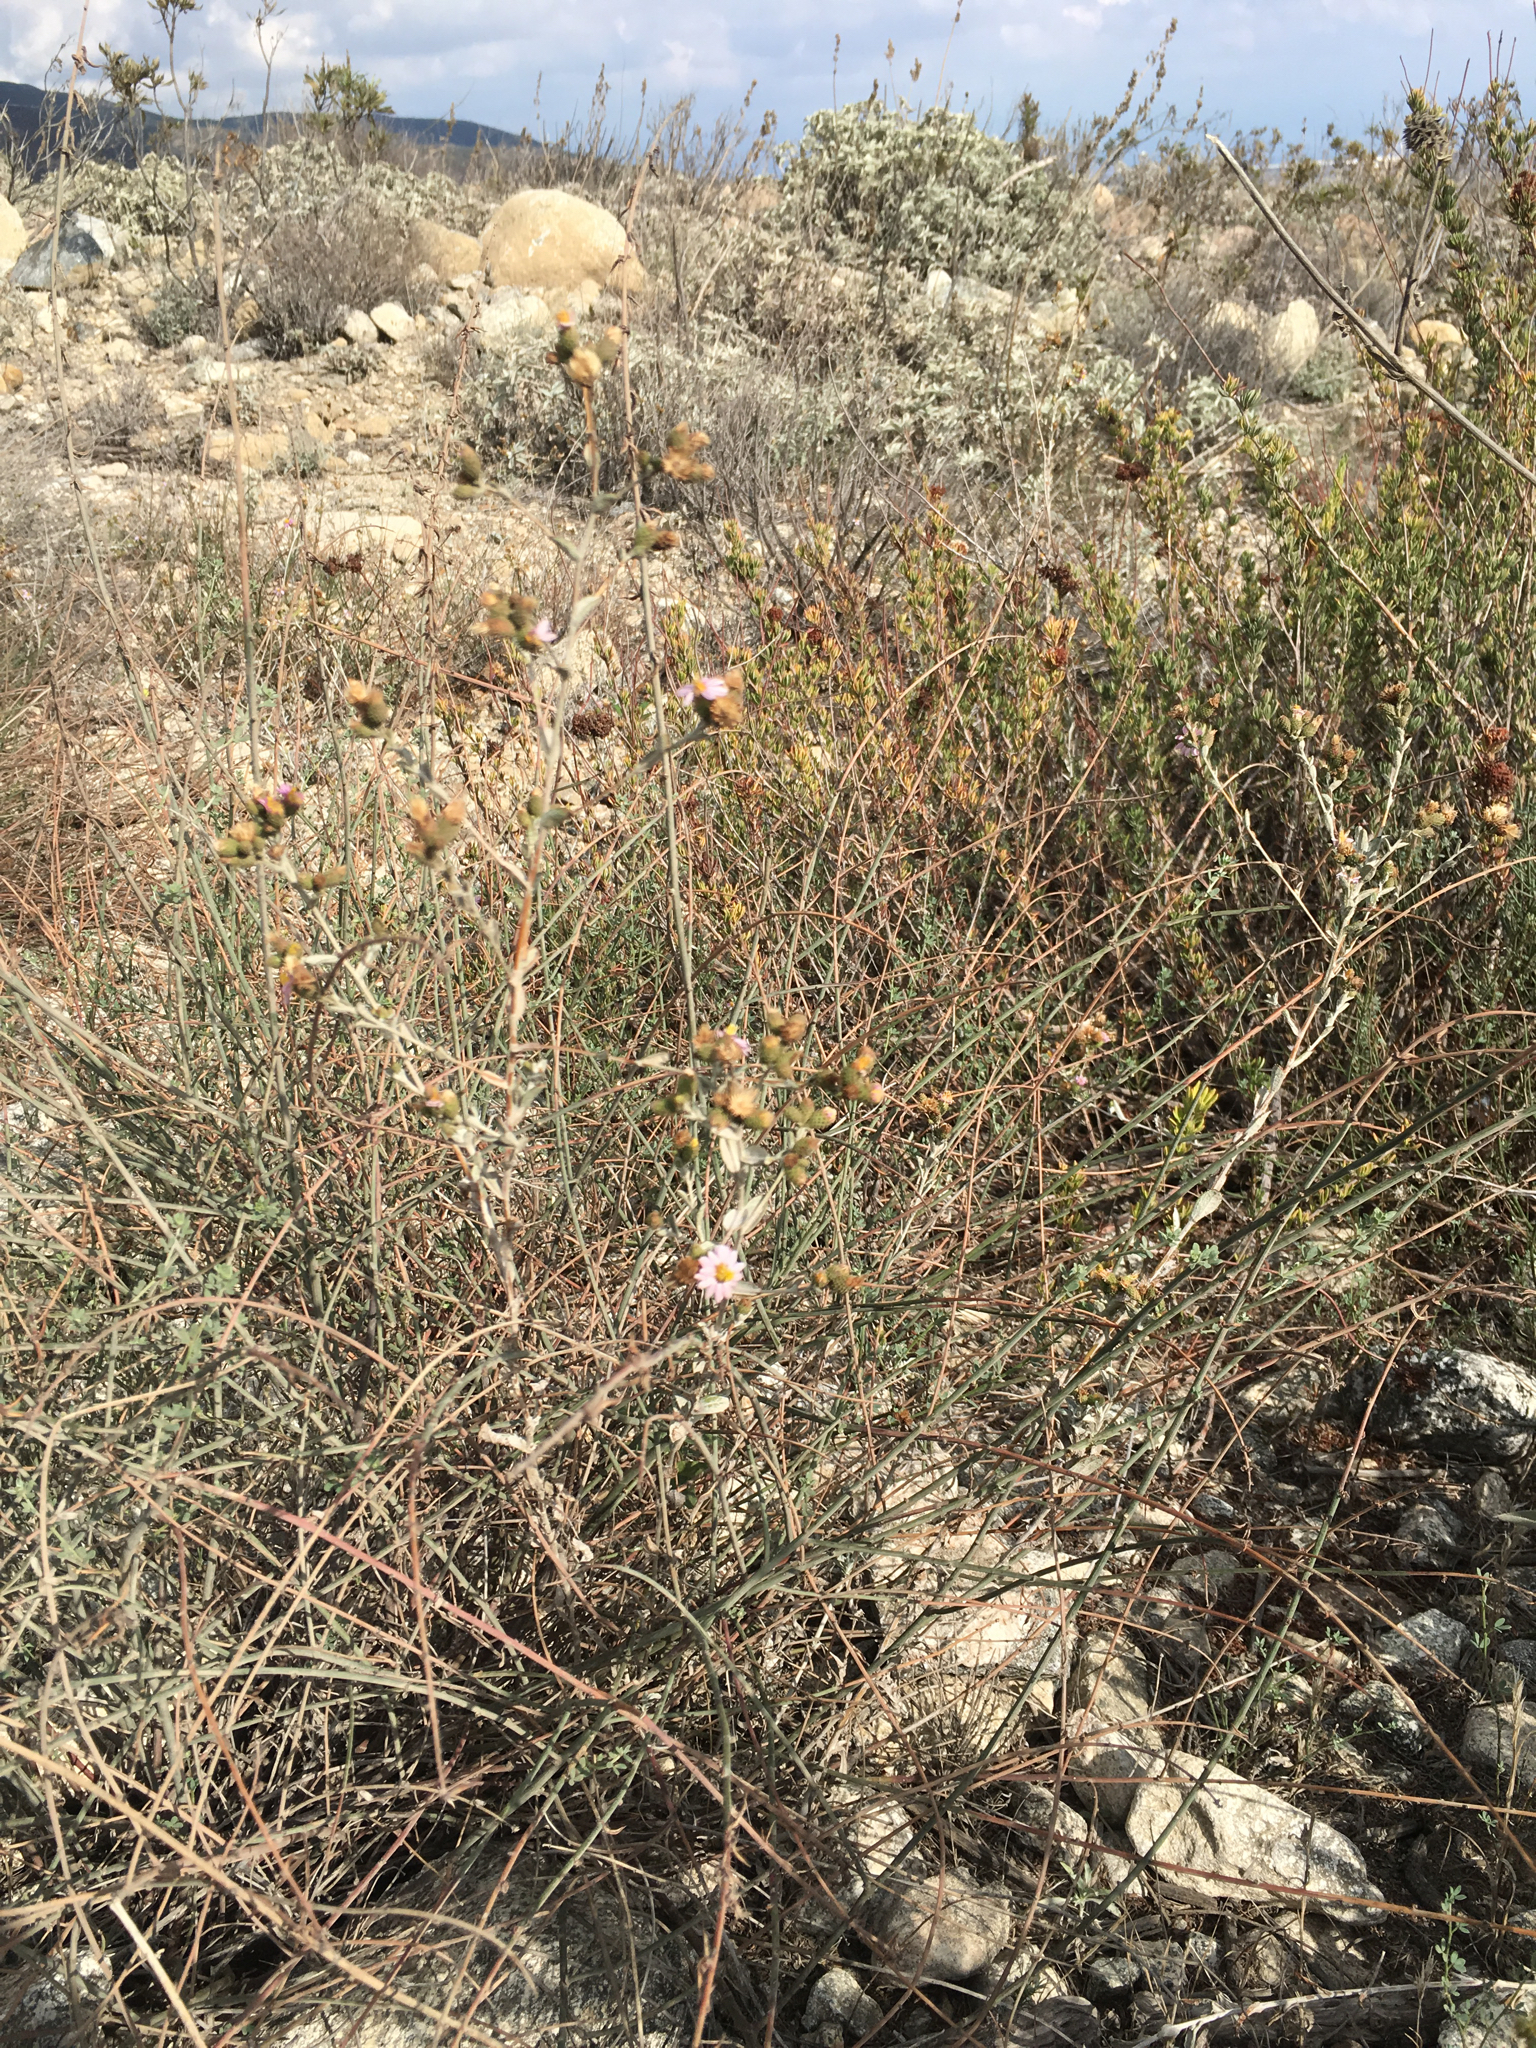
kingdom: Plantae
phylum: Tracheophyta
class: Magnoliopsida
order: Asterales
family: Asteraceae
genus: Corethrogyne
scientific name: Corethrogyne filaginifolia
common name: Sand-aster
